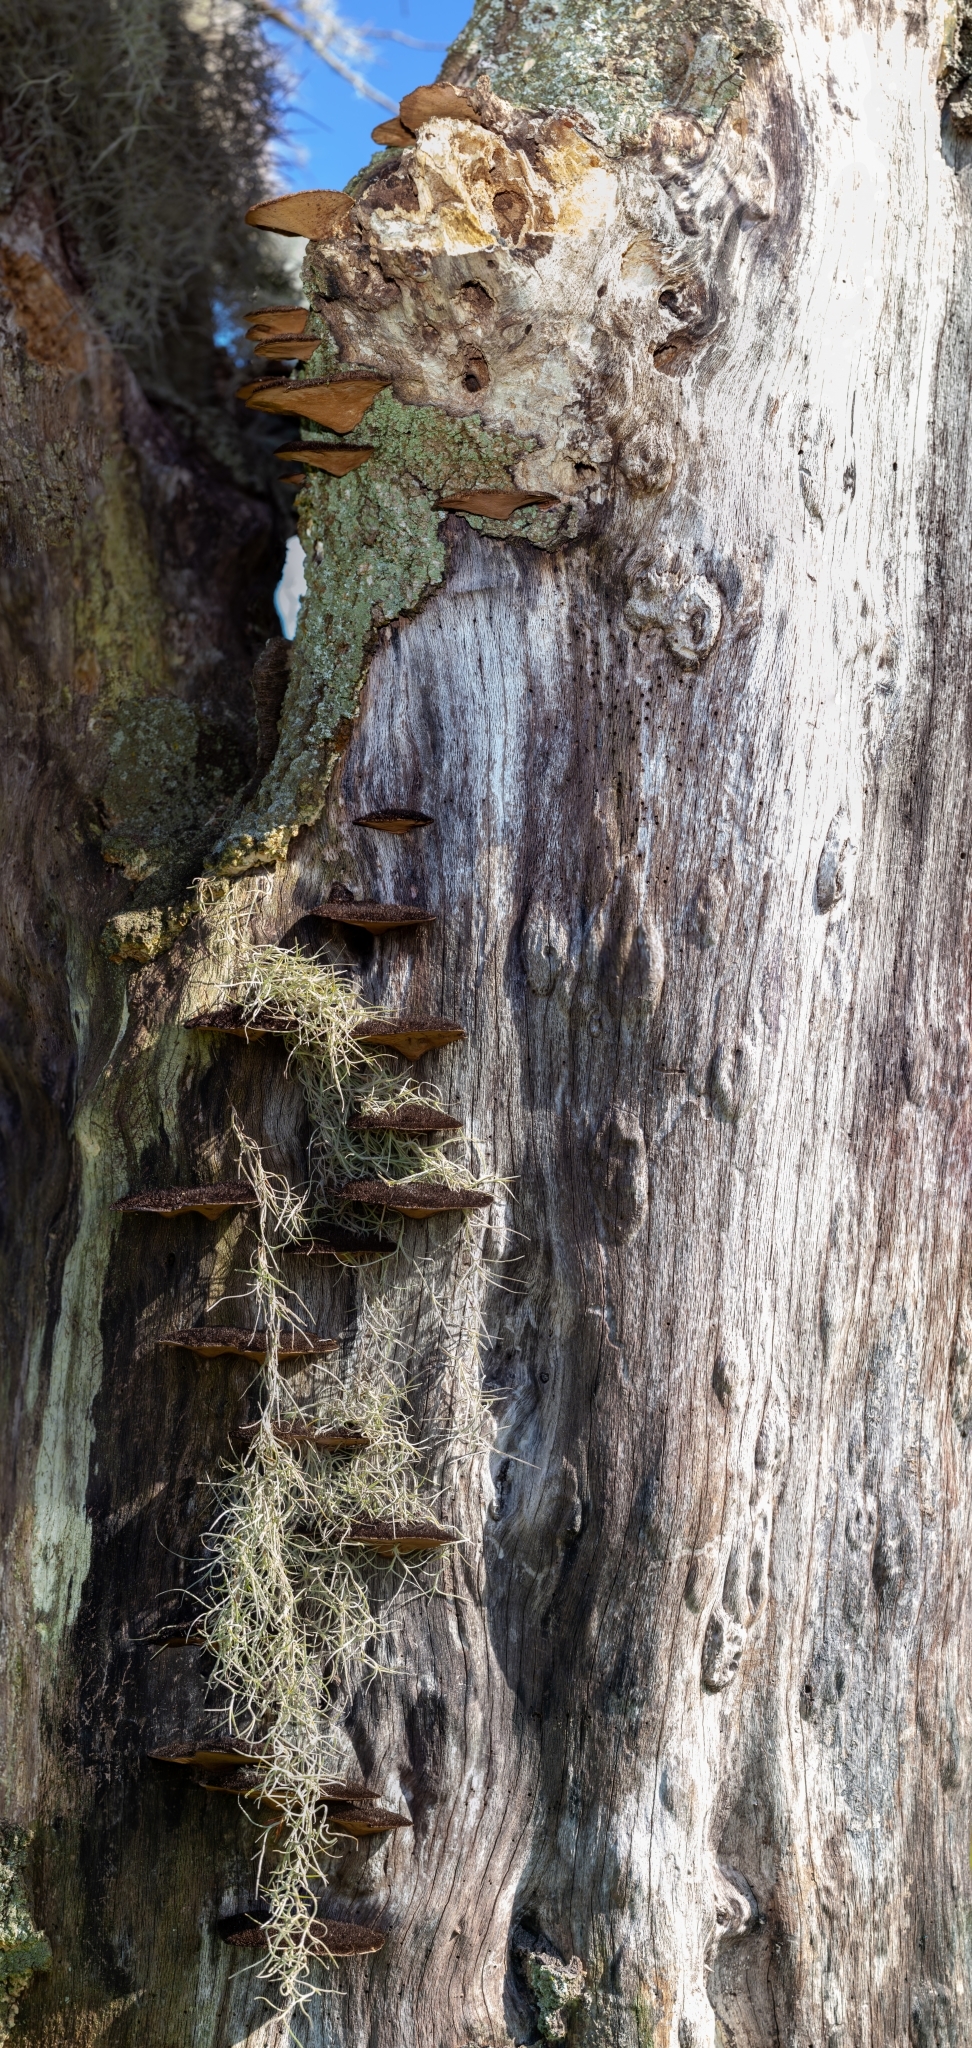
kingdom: Fungi
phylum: Basidiomycota
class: Agaricomycetes
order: Polyporales
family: Cerrenaceae
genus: Cerrena
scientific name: Cerrena hydnoides
